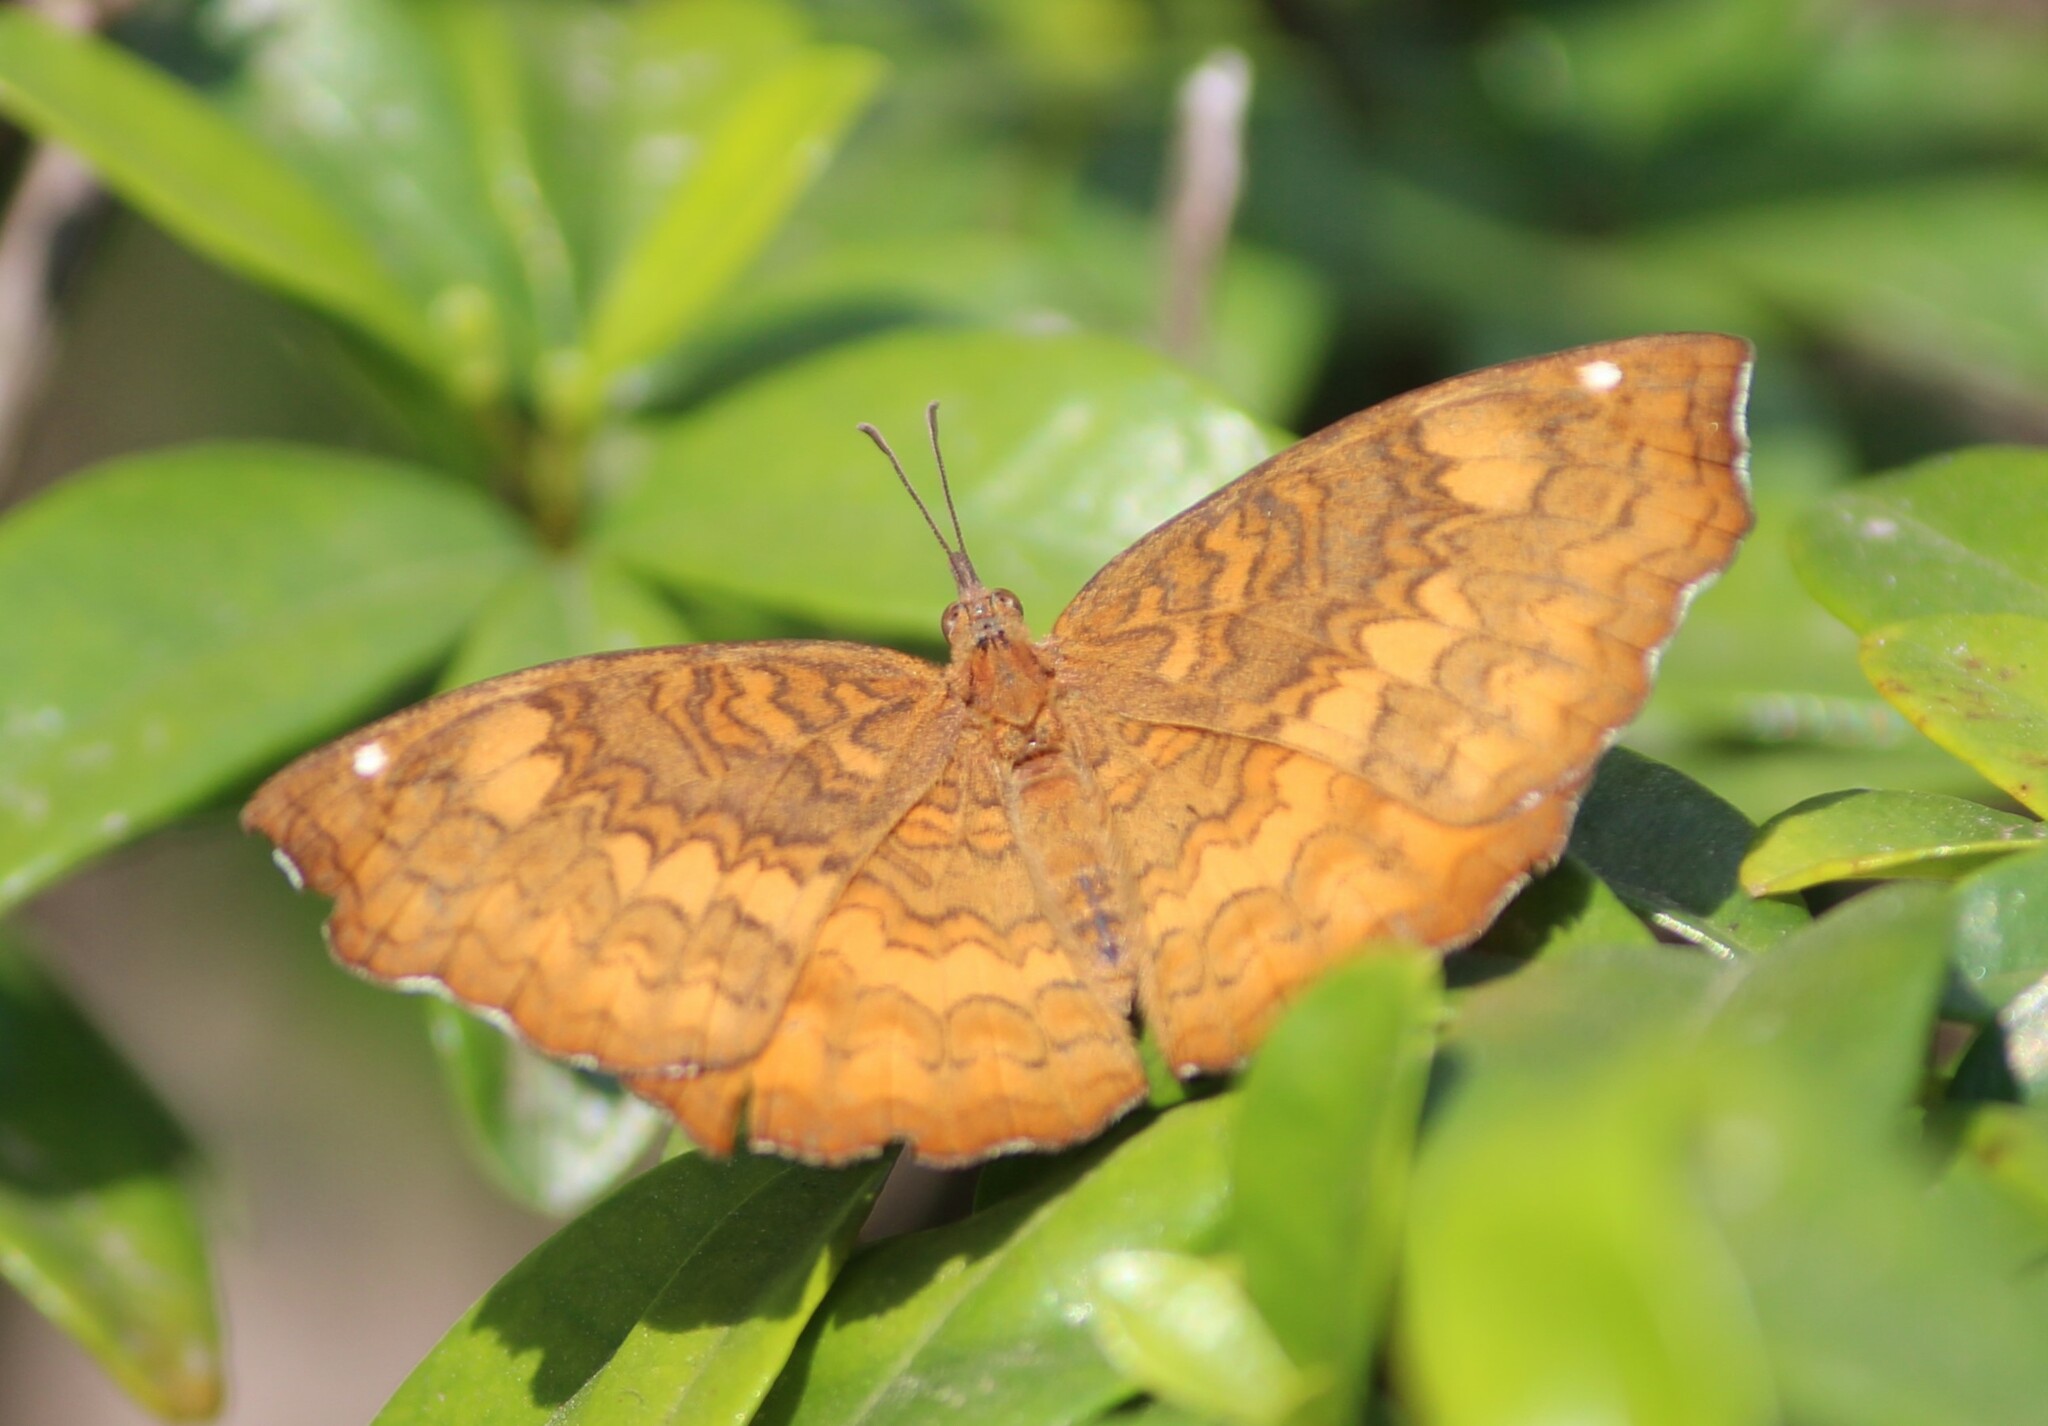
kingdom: Animalia
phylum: Arthropoda
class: Insecta
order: Lepidoptera
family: Nymphalidae
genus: Ariadne
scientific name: Ariadne merione
